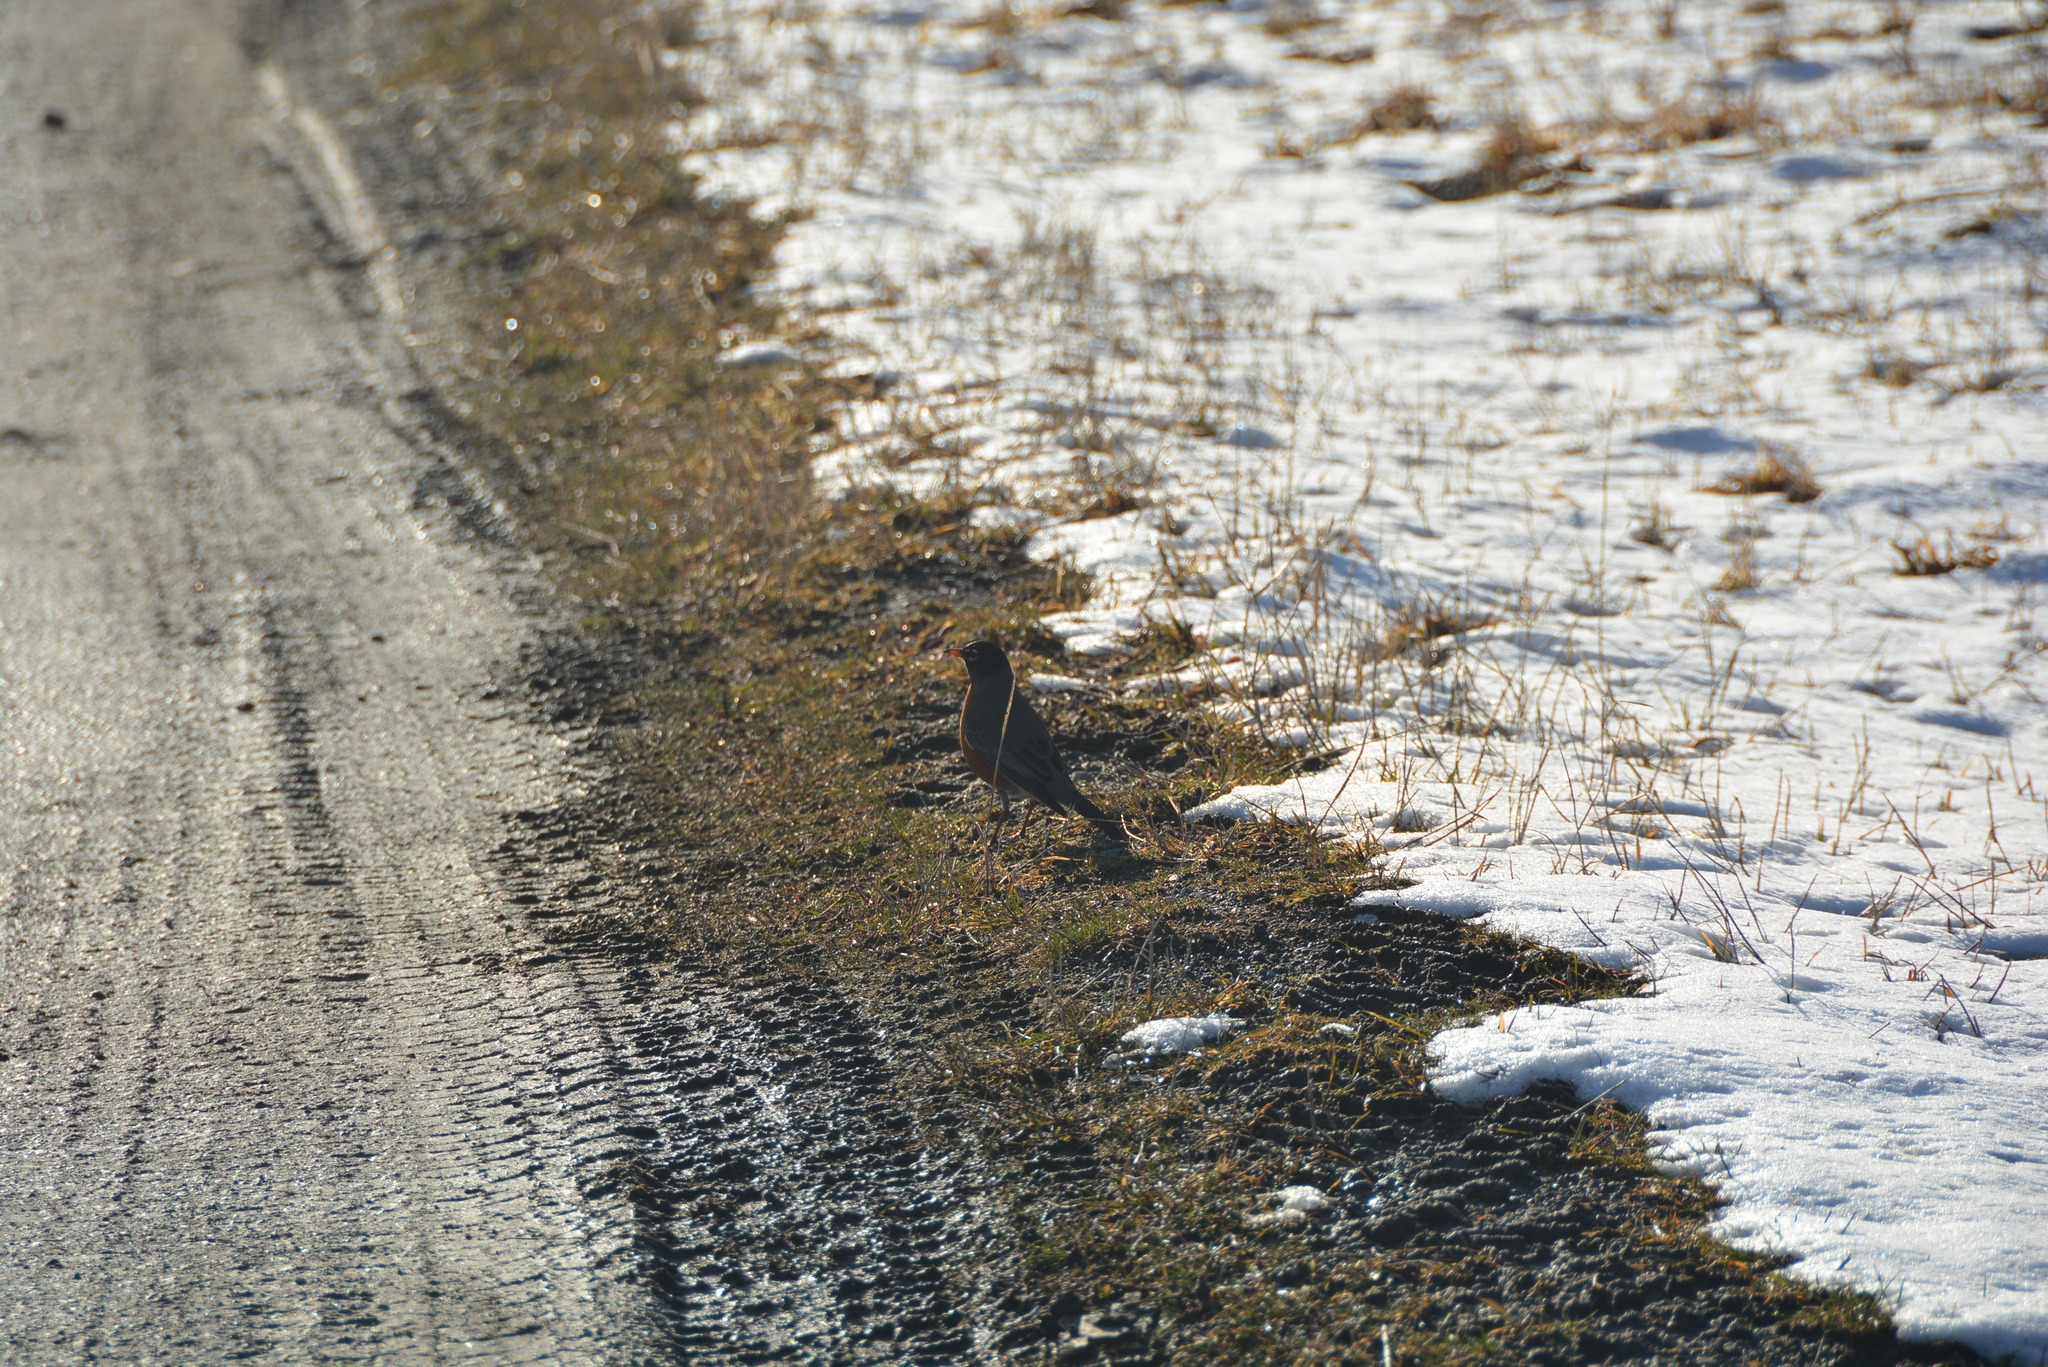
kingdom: Animalia
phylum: Chordata
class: Aves
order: Passeriformes
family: Turdidae
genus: Turdus
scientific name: Turdus migratorius
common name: American robin
